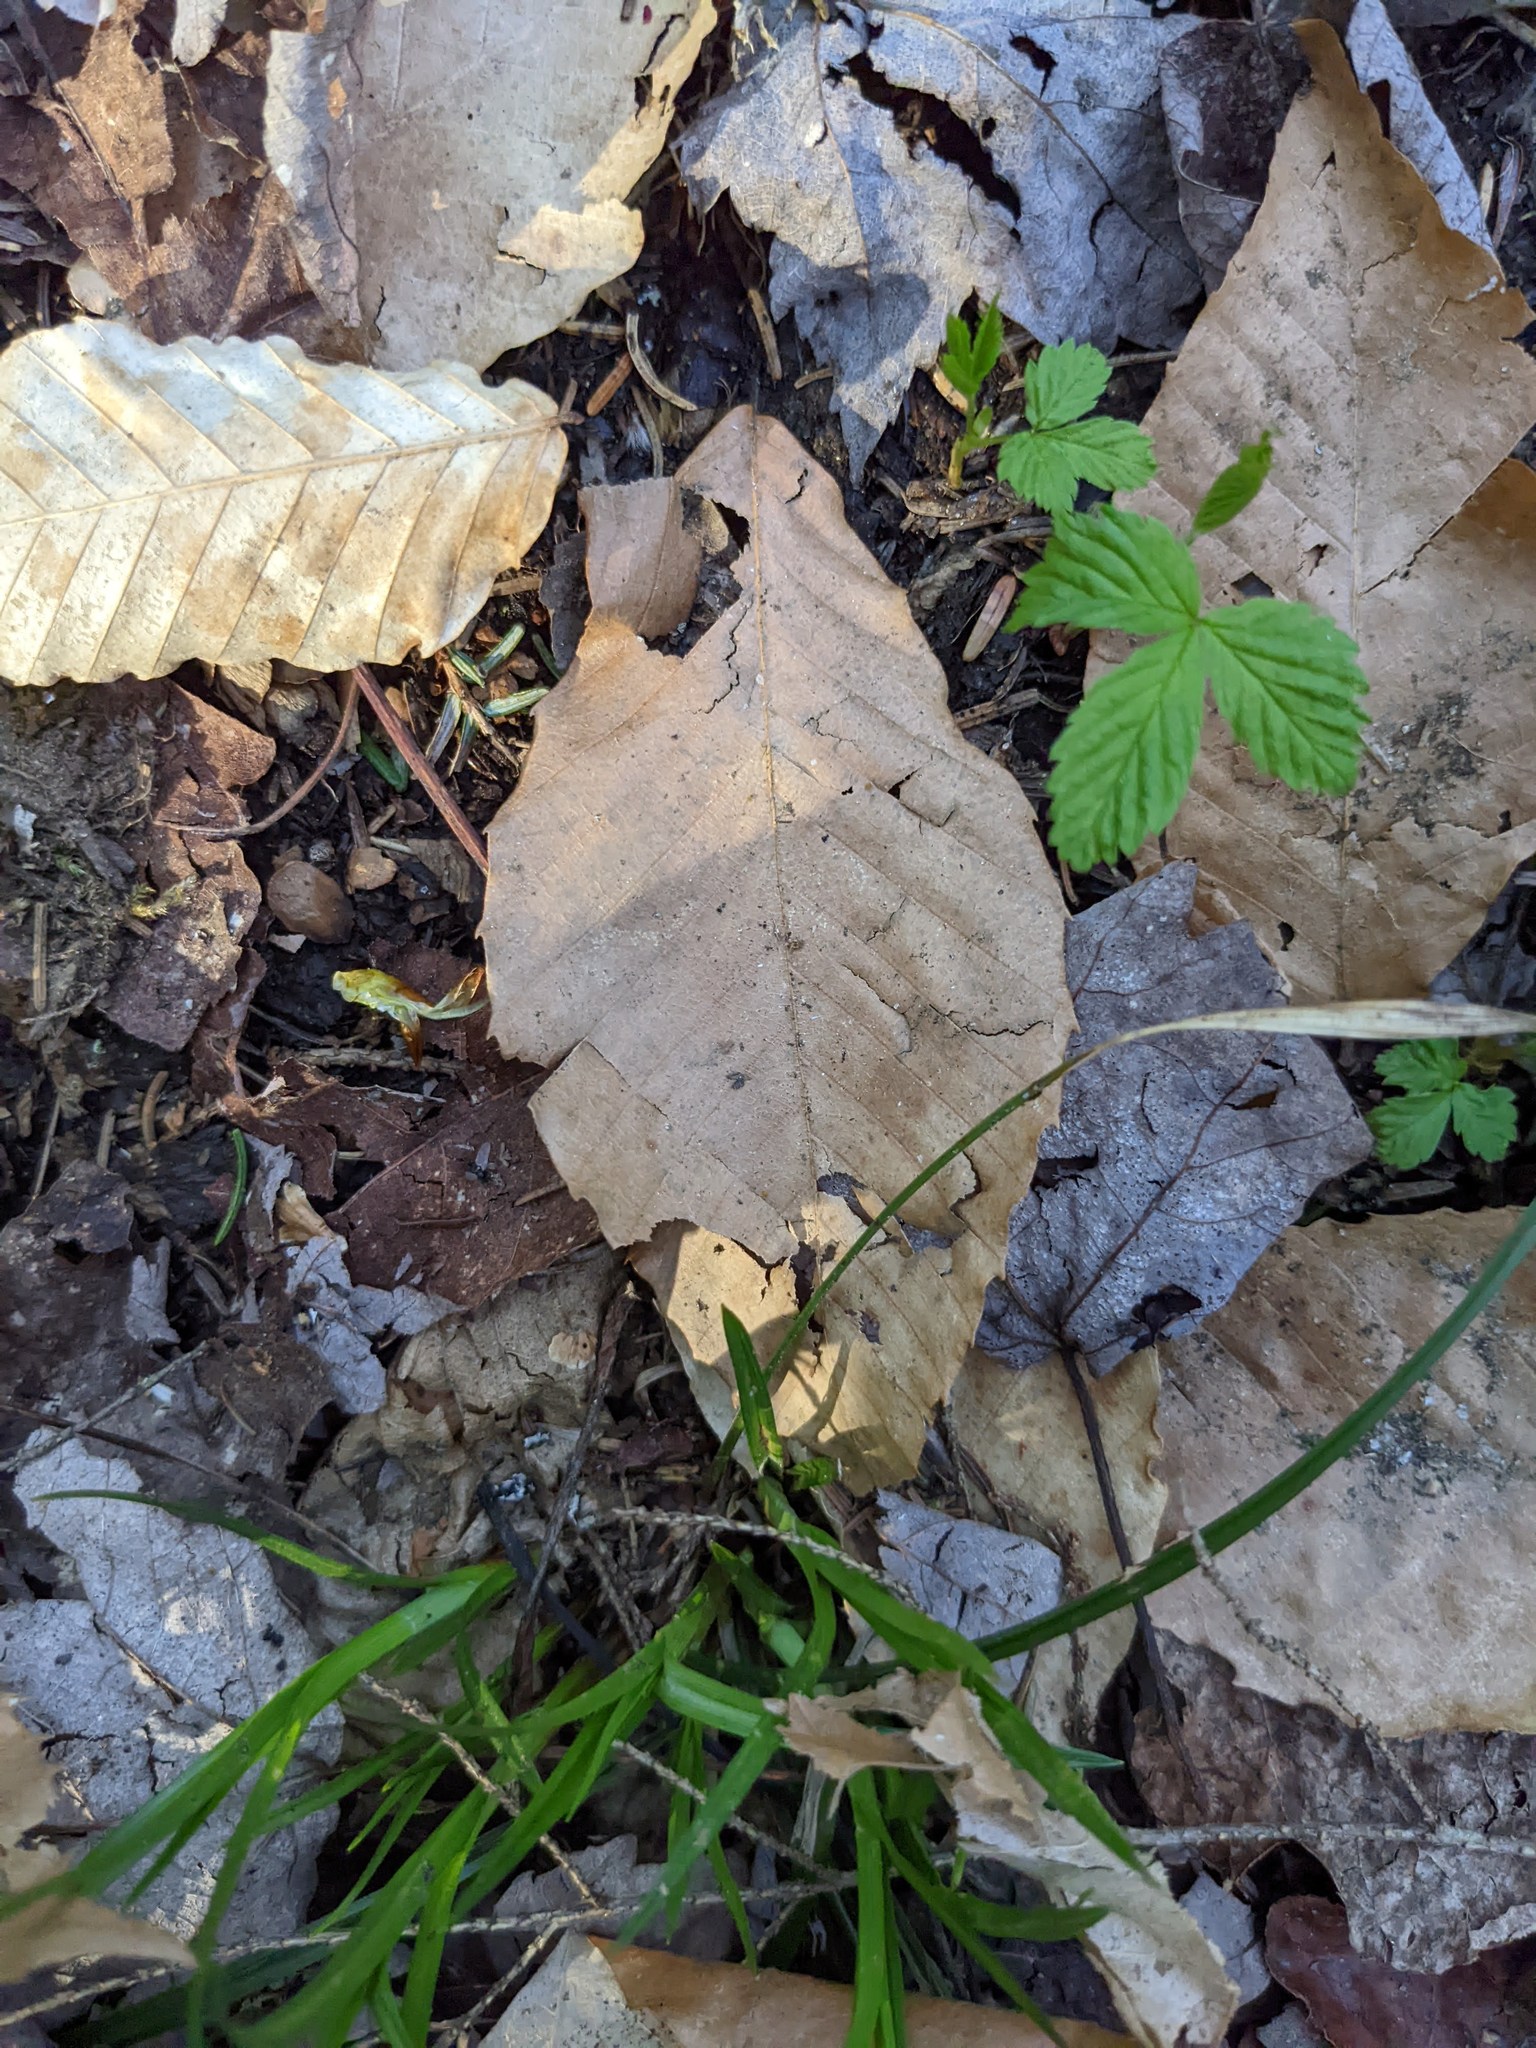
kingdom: Plantae
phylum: Tracheophyta
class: Magnoliopsida
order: Fagales
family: Fagaceae
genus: Fagus
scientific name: Fagus grandifolia
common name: American beech
